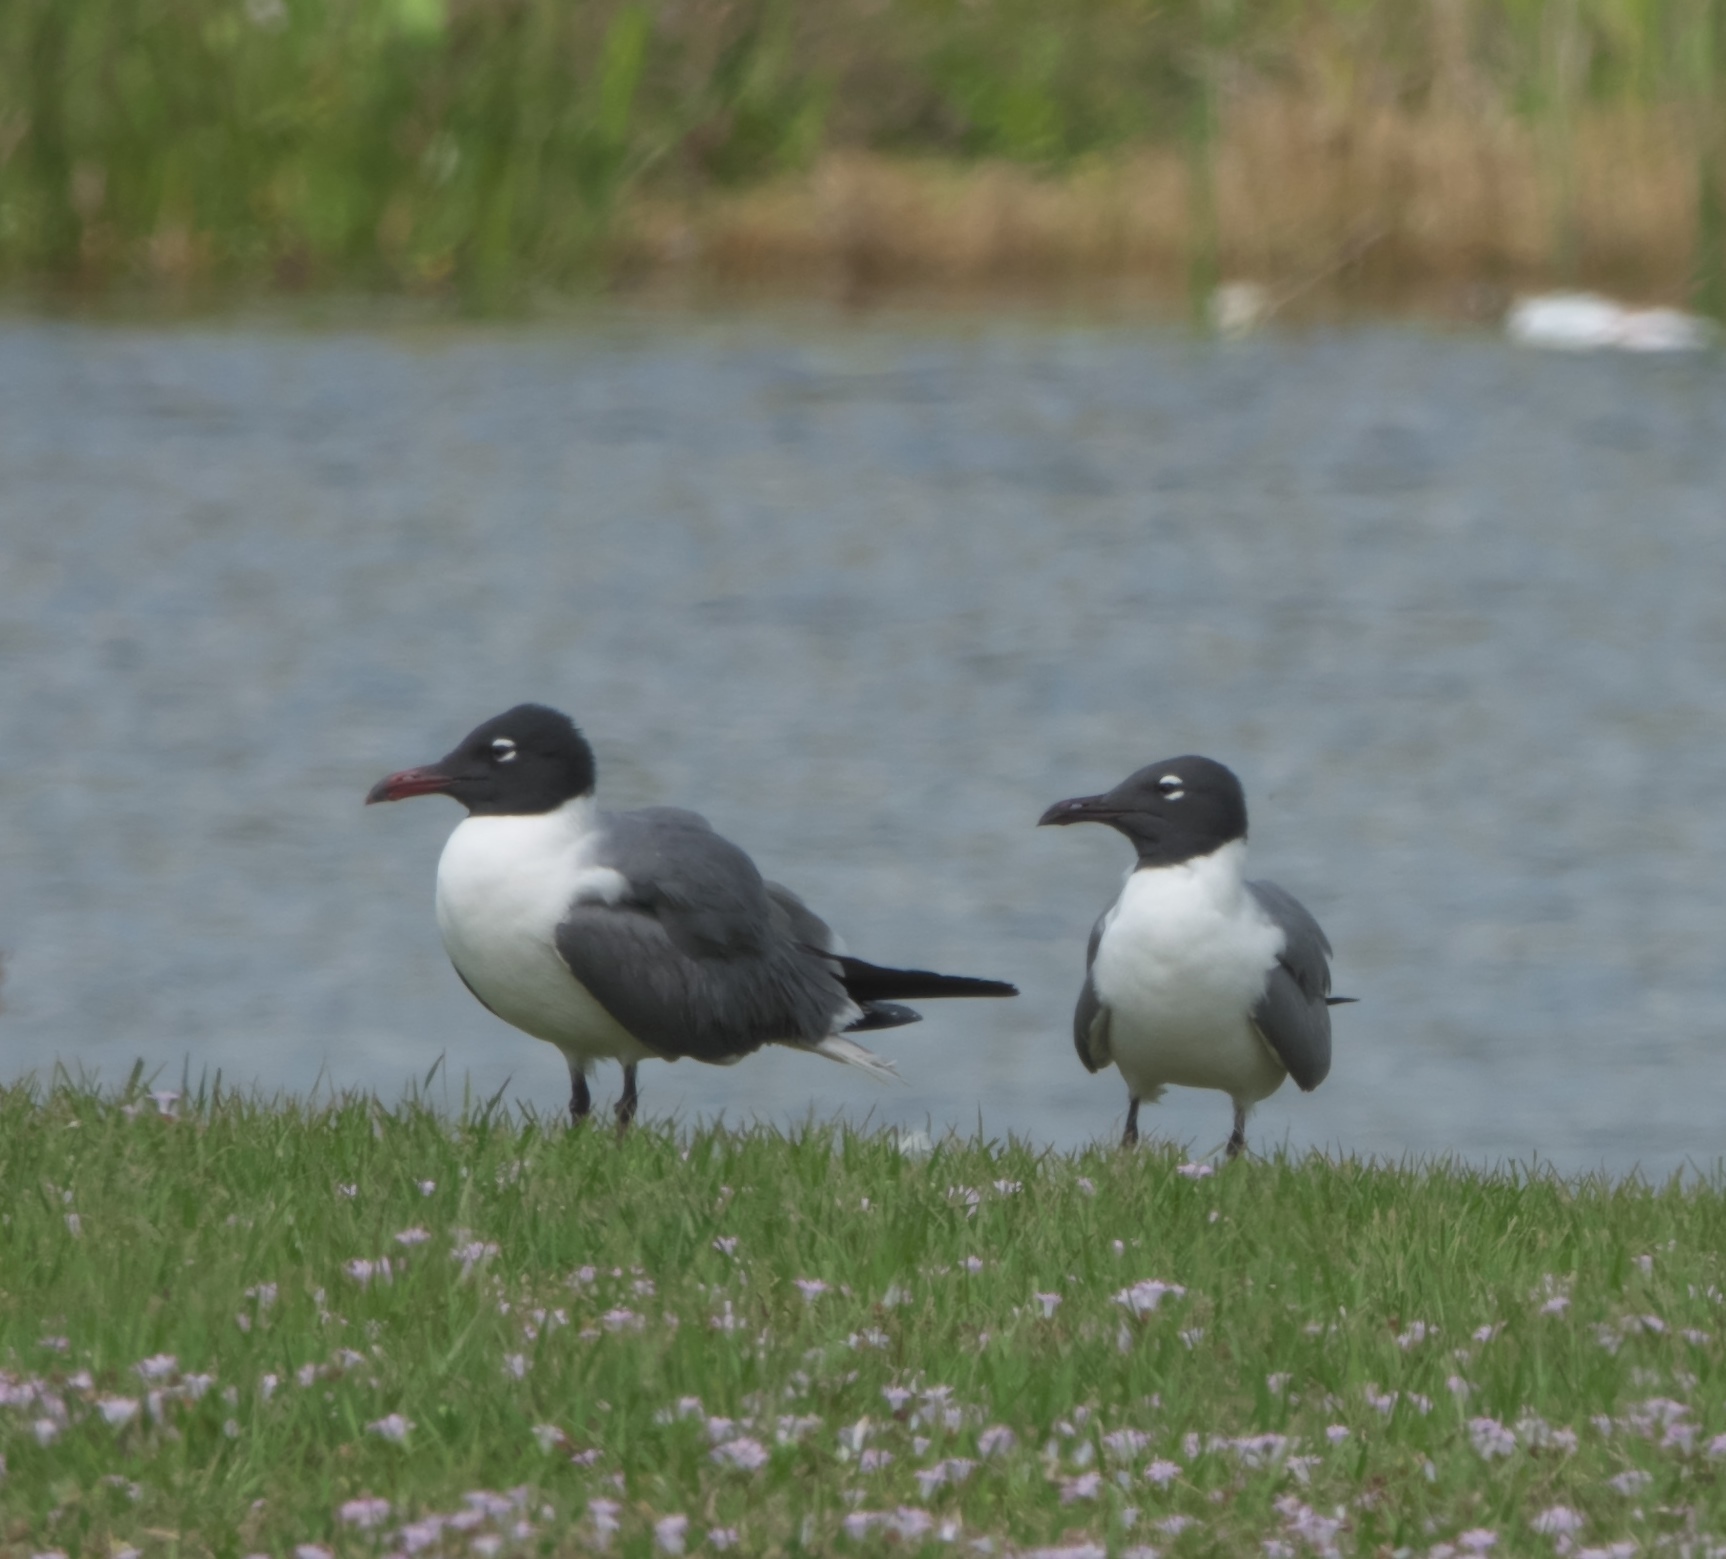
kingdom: Animalia
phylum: Chordata
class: Aves
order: Charadriiformes
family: Laridae
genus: Leucophaeus
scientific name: Leucophaeus atricilla
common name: Laughing gull
